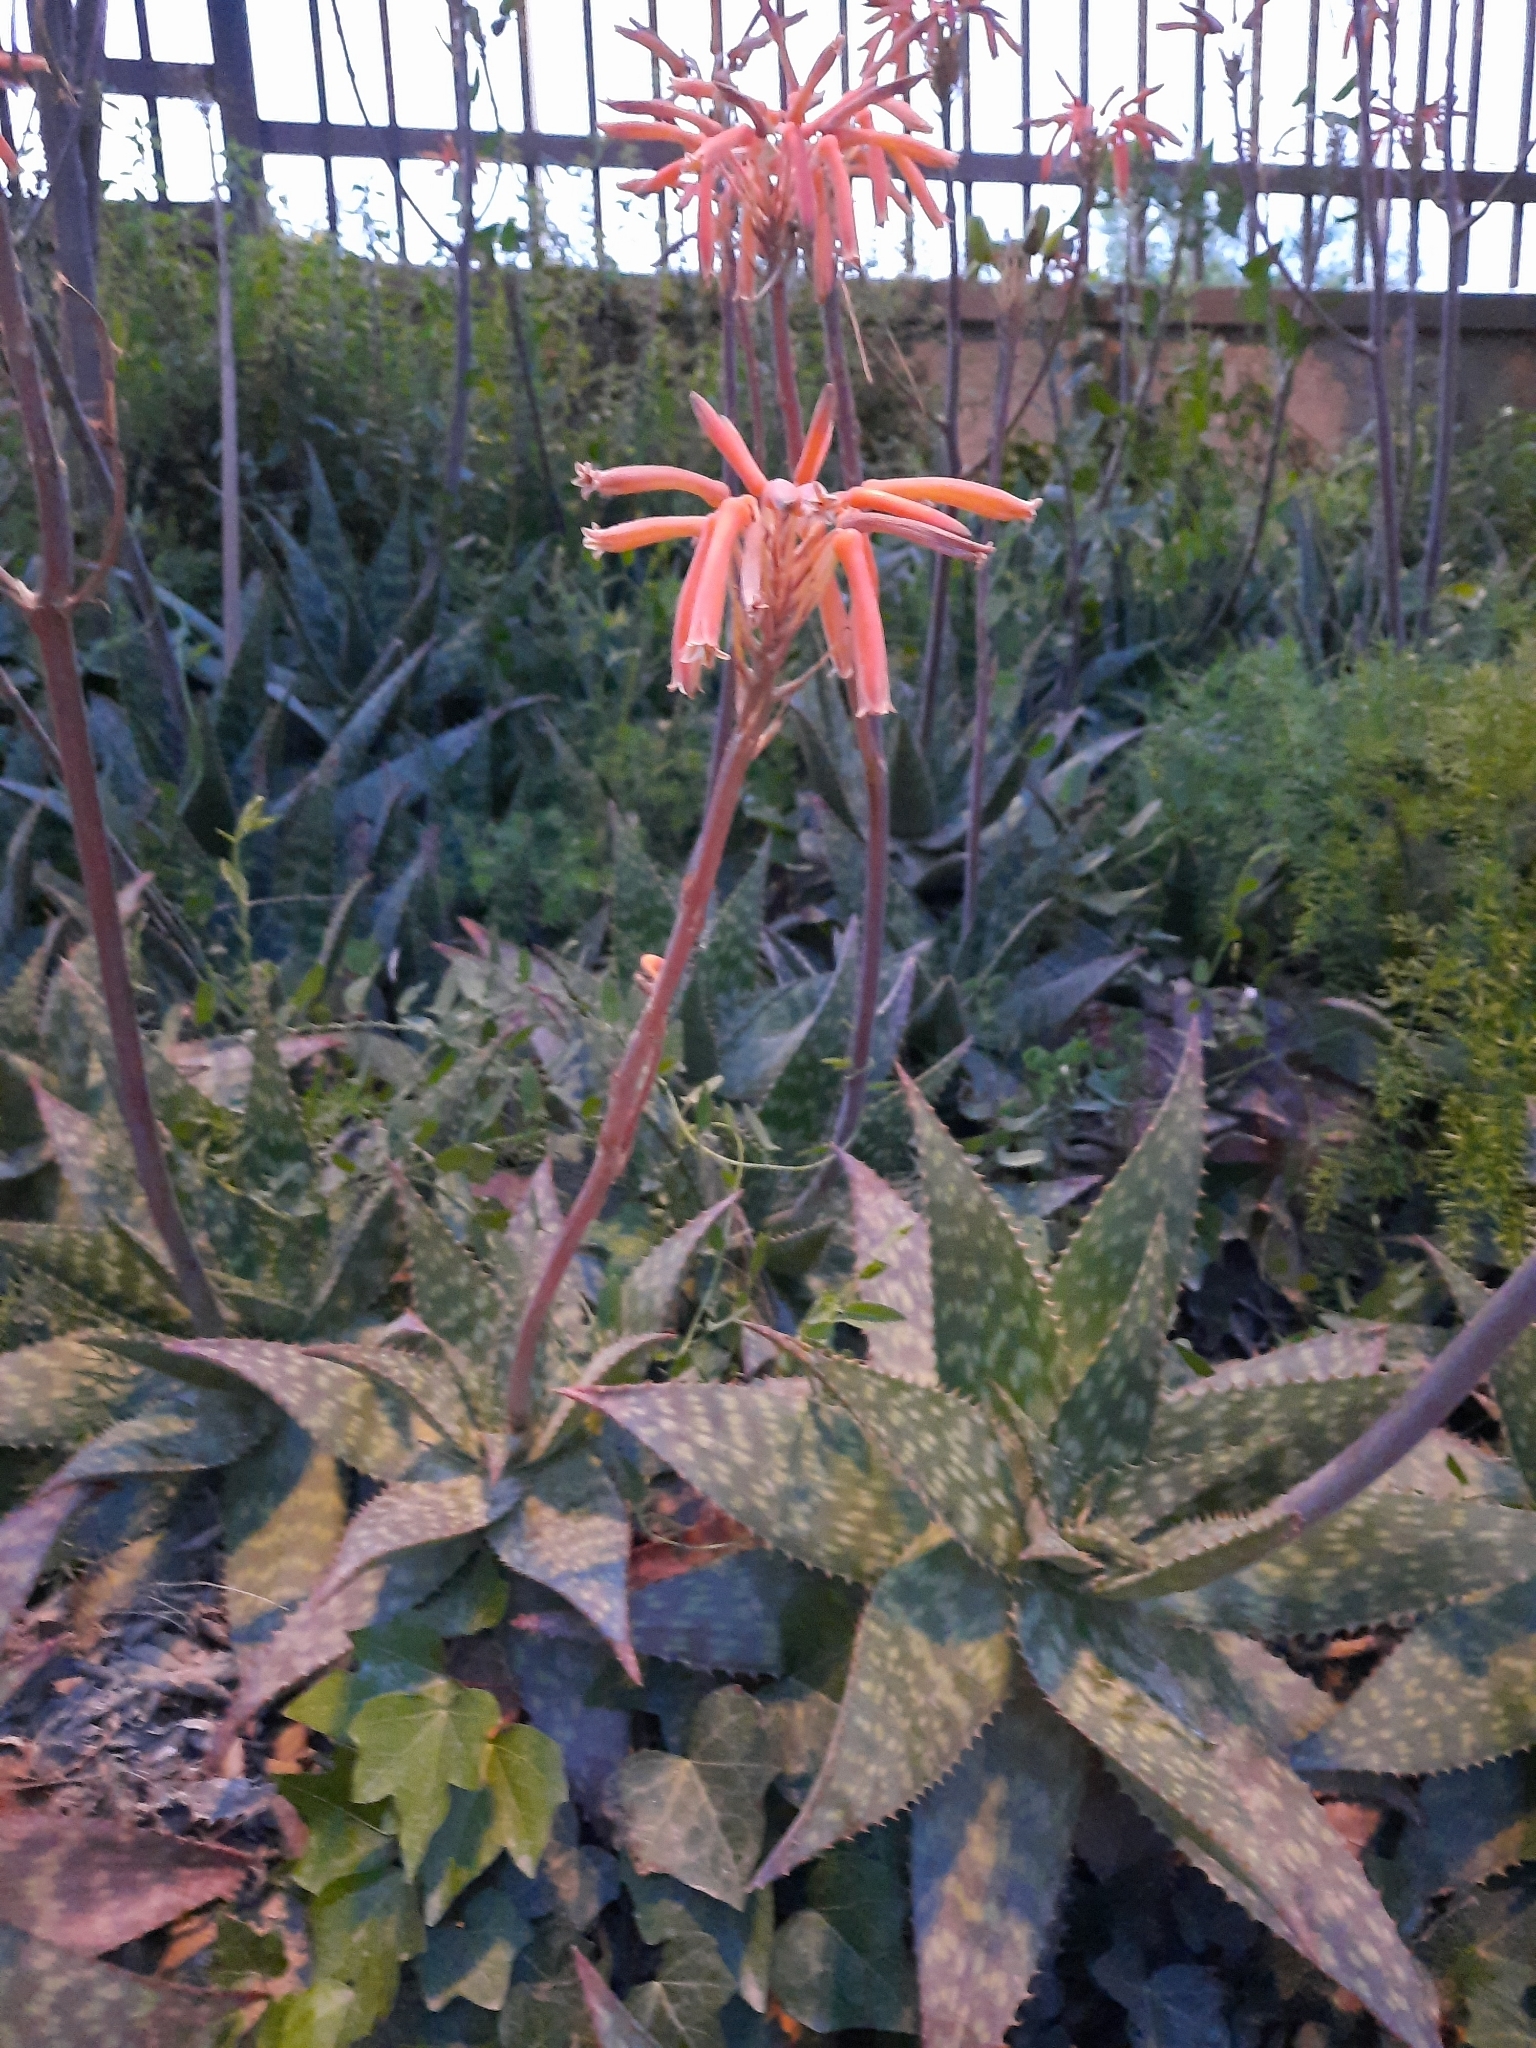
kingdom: Plantae
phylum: Tracheophyta
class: Liliopsida
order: Asparagales
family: Asphodelaceae
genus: Aloe
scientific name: Aloe maculata
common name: Broadleaf aloe
